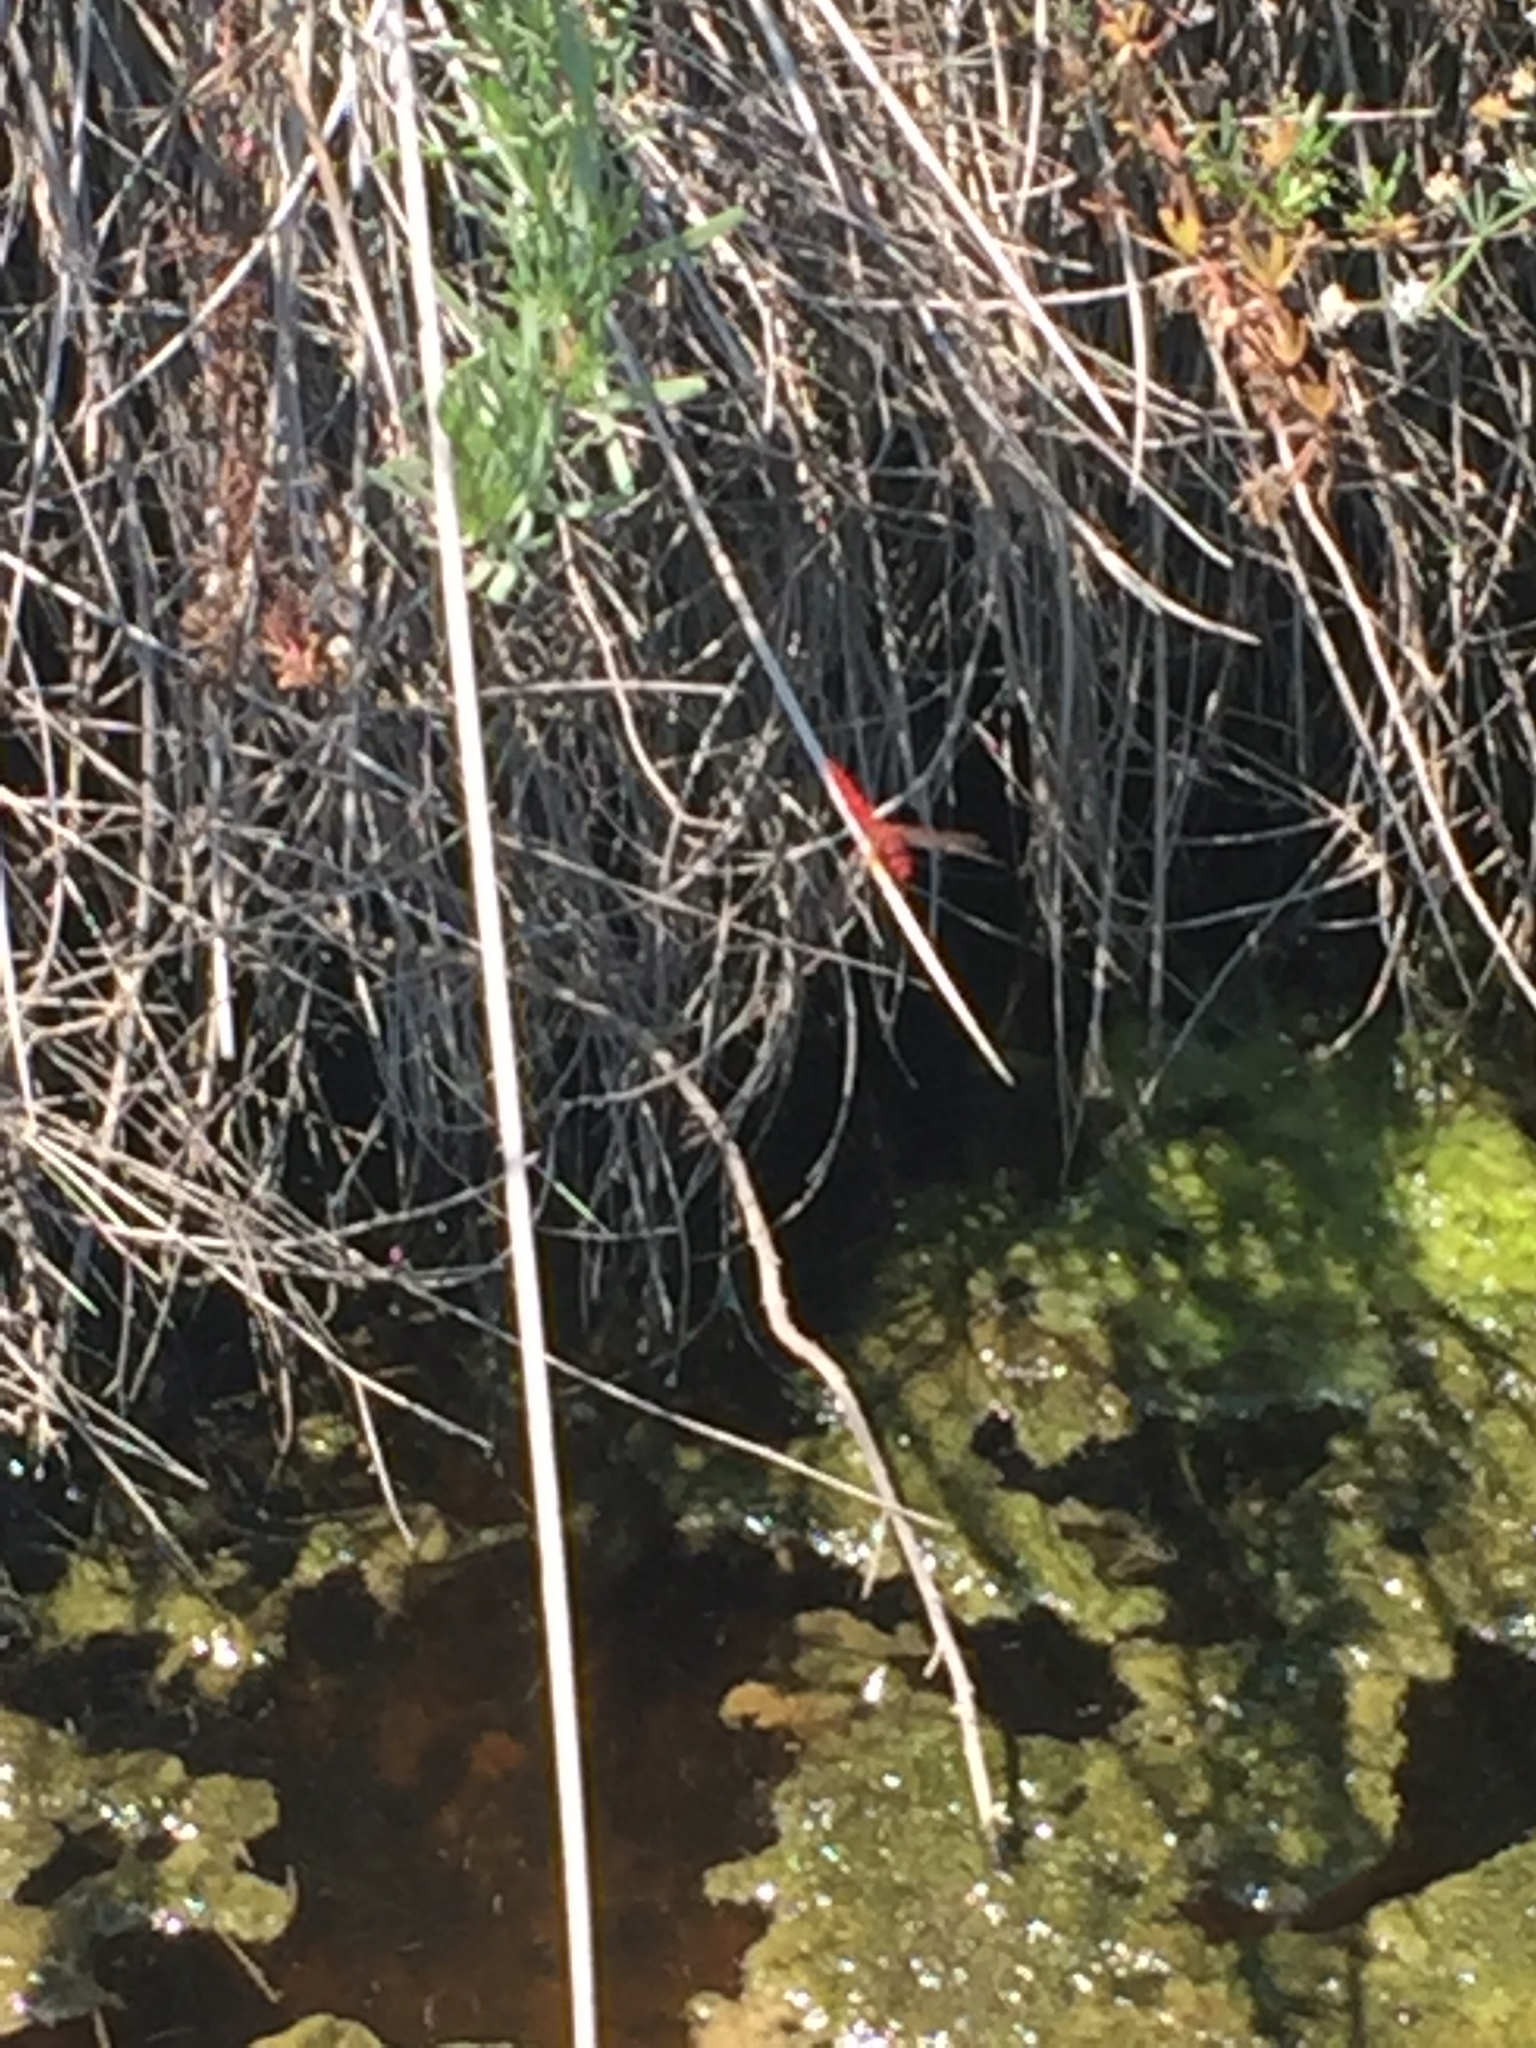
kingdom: Animalia
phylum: Arthropoda
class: Insecta
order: Odonata
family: Libellulidae
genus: Crocothemis
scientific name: Crocothemis erythraea
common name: Scarlet dragonfly
